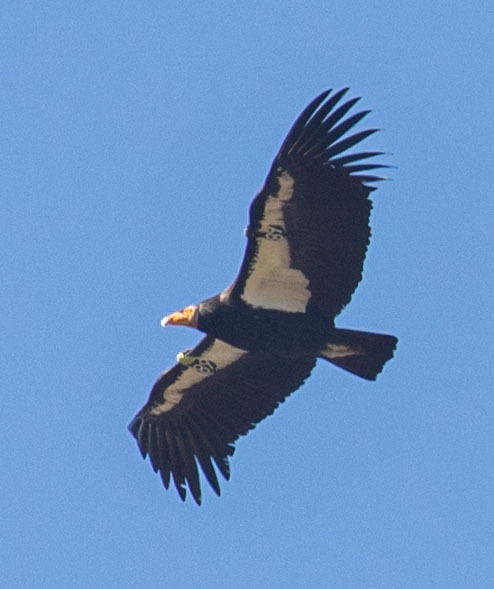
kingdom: Animalia
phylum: Chordata
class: Aves
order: Accipitriformes
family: Cathartidae
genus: Gymnogyps
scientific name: Gymnogyps californianus
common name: California condor
